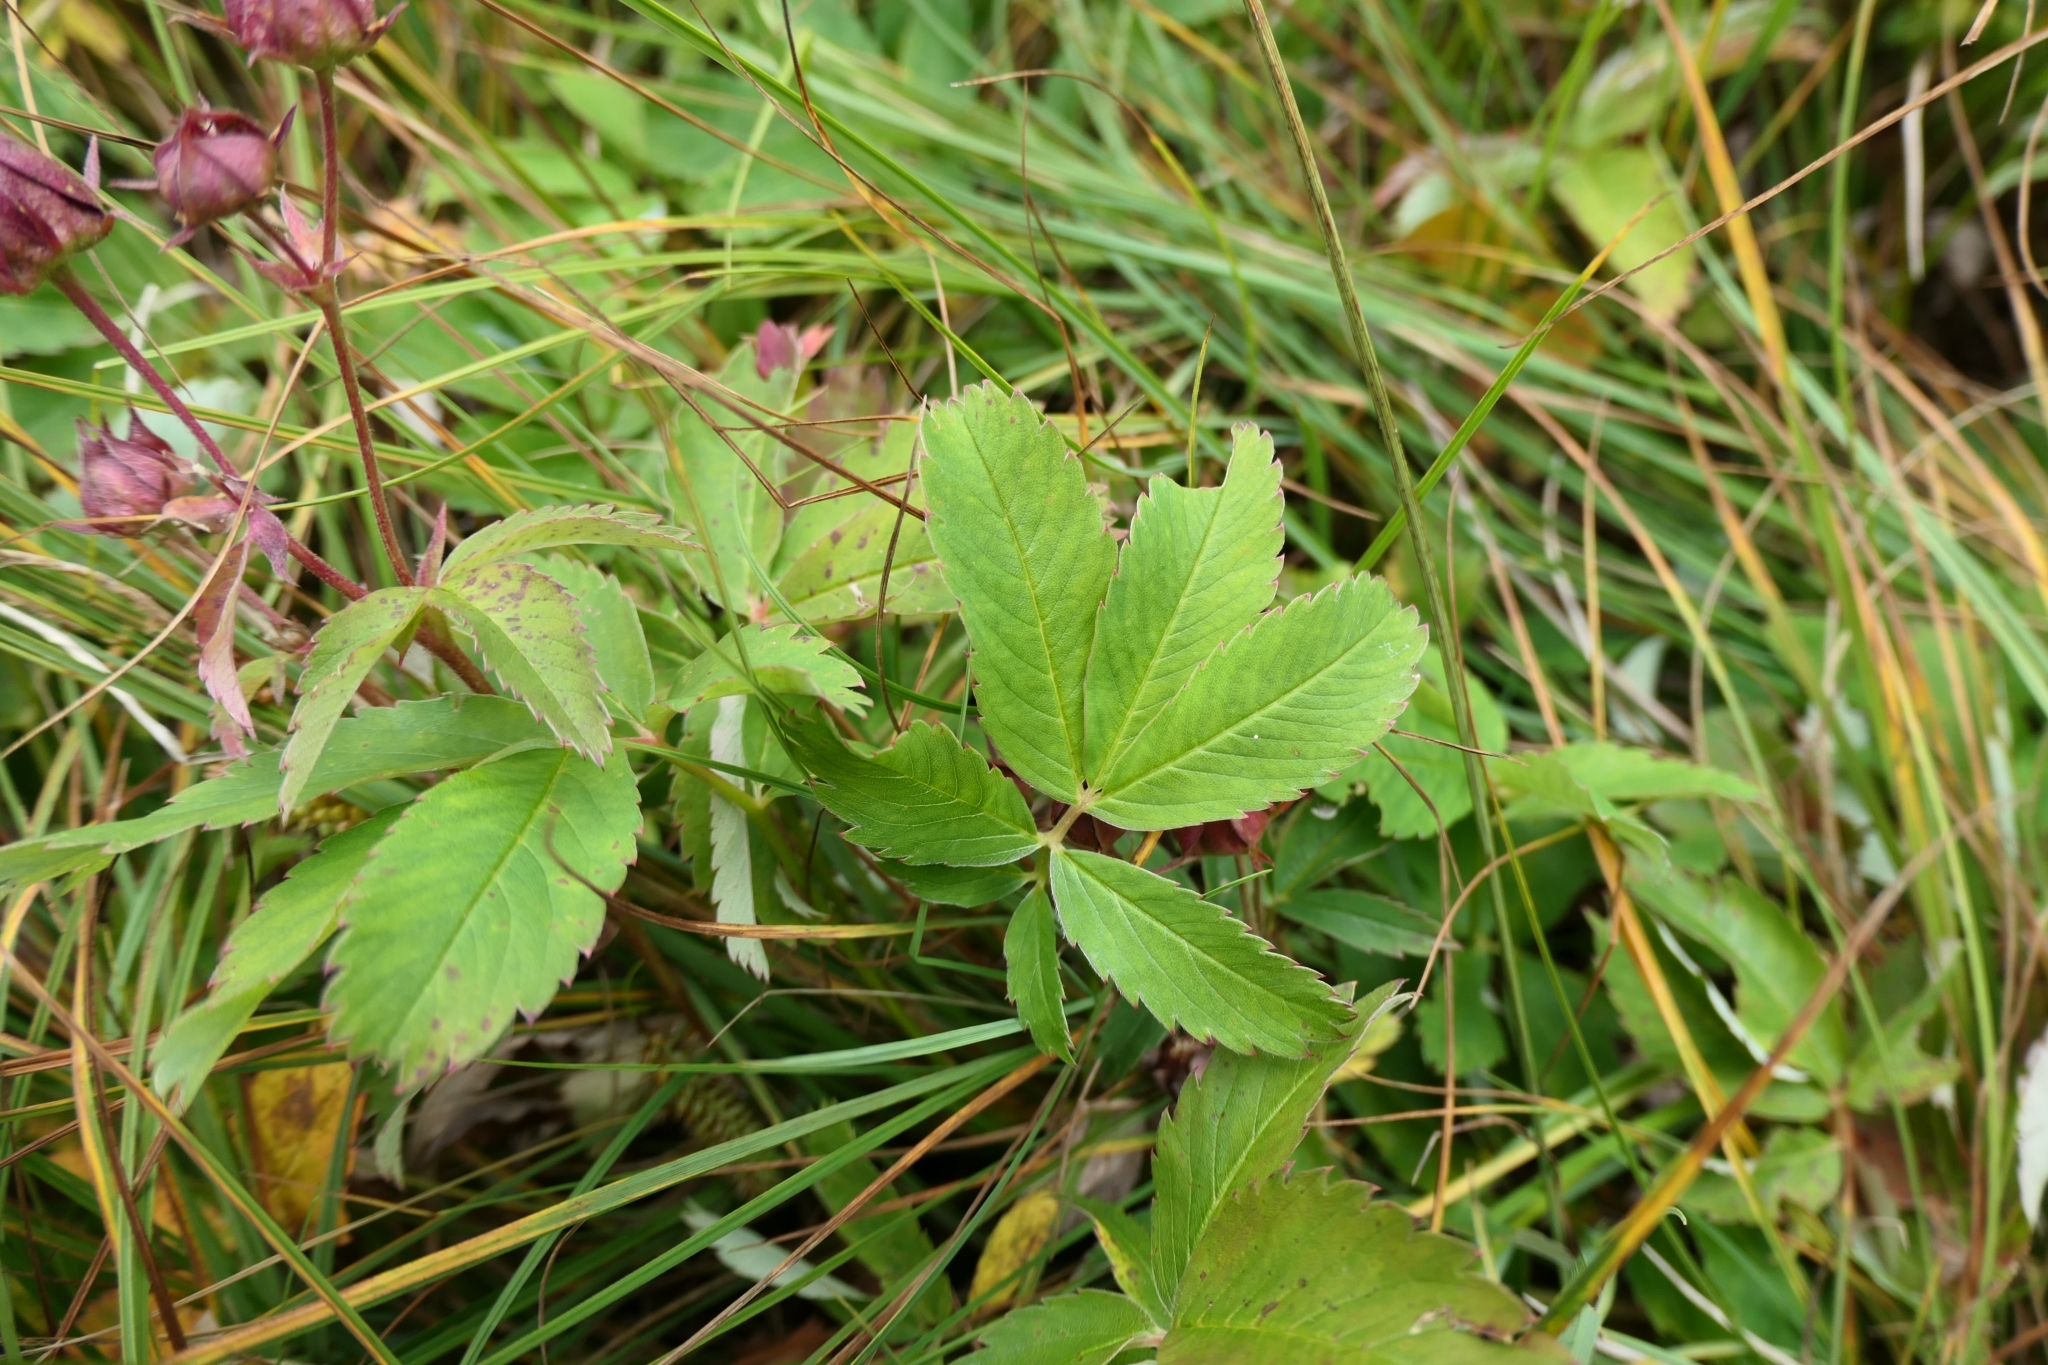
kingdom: Plantae
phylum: Tracheophyta
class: Magnoliopsida
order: Rosales
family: Rosaceae
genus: Comarum
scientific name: Comarum palustre
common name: Marsh cinquefoil
